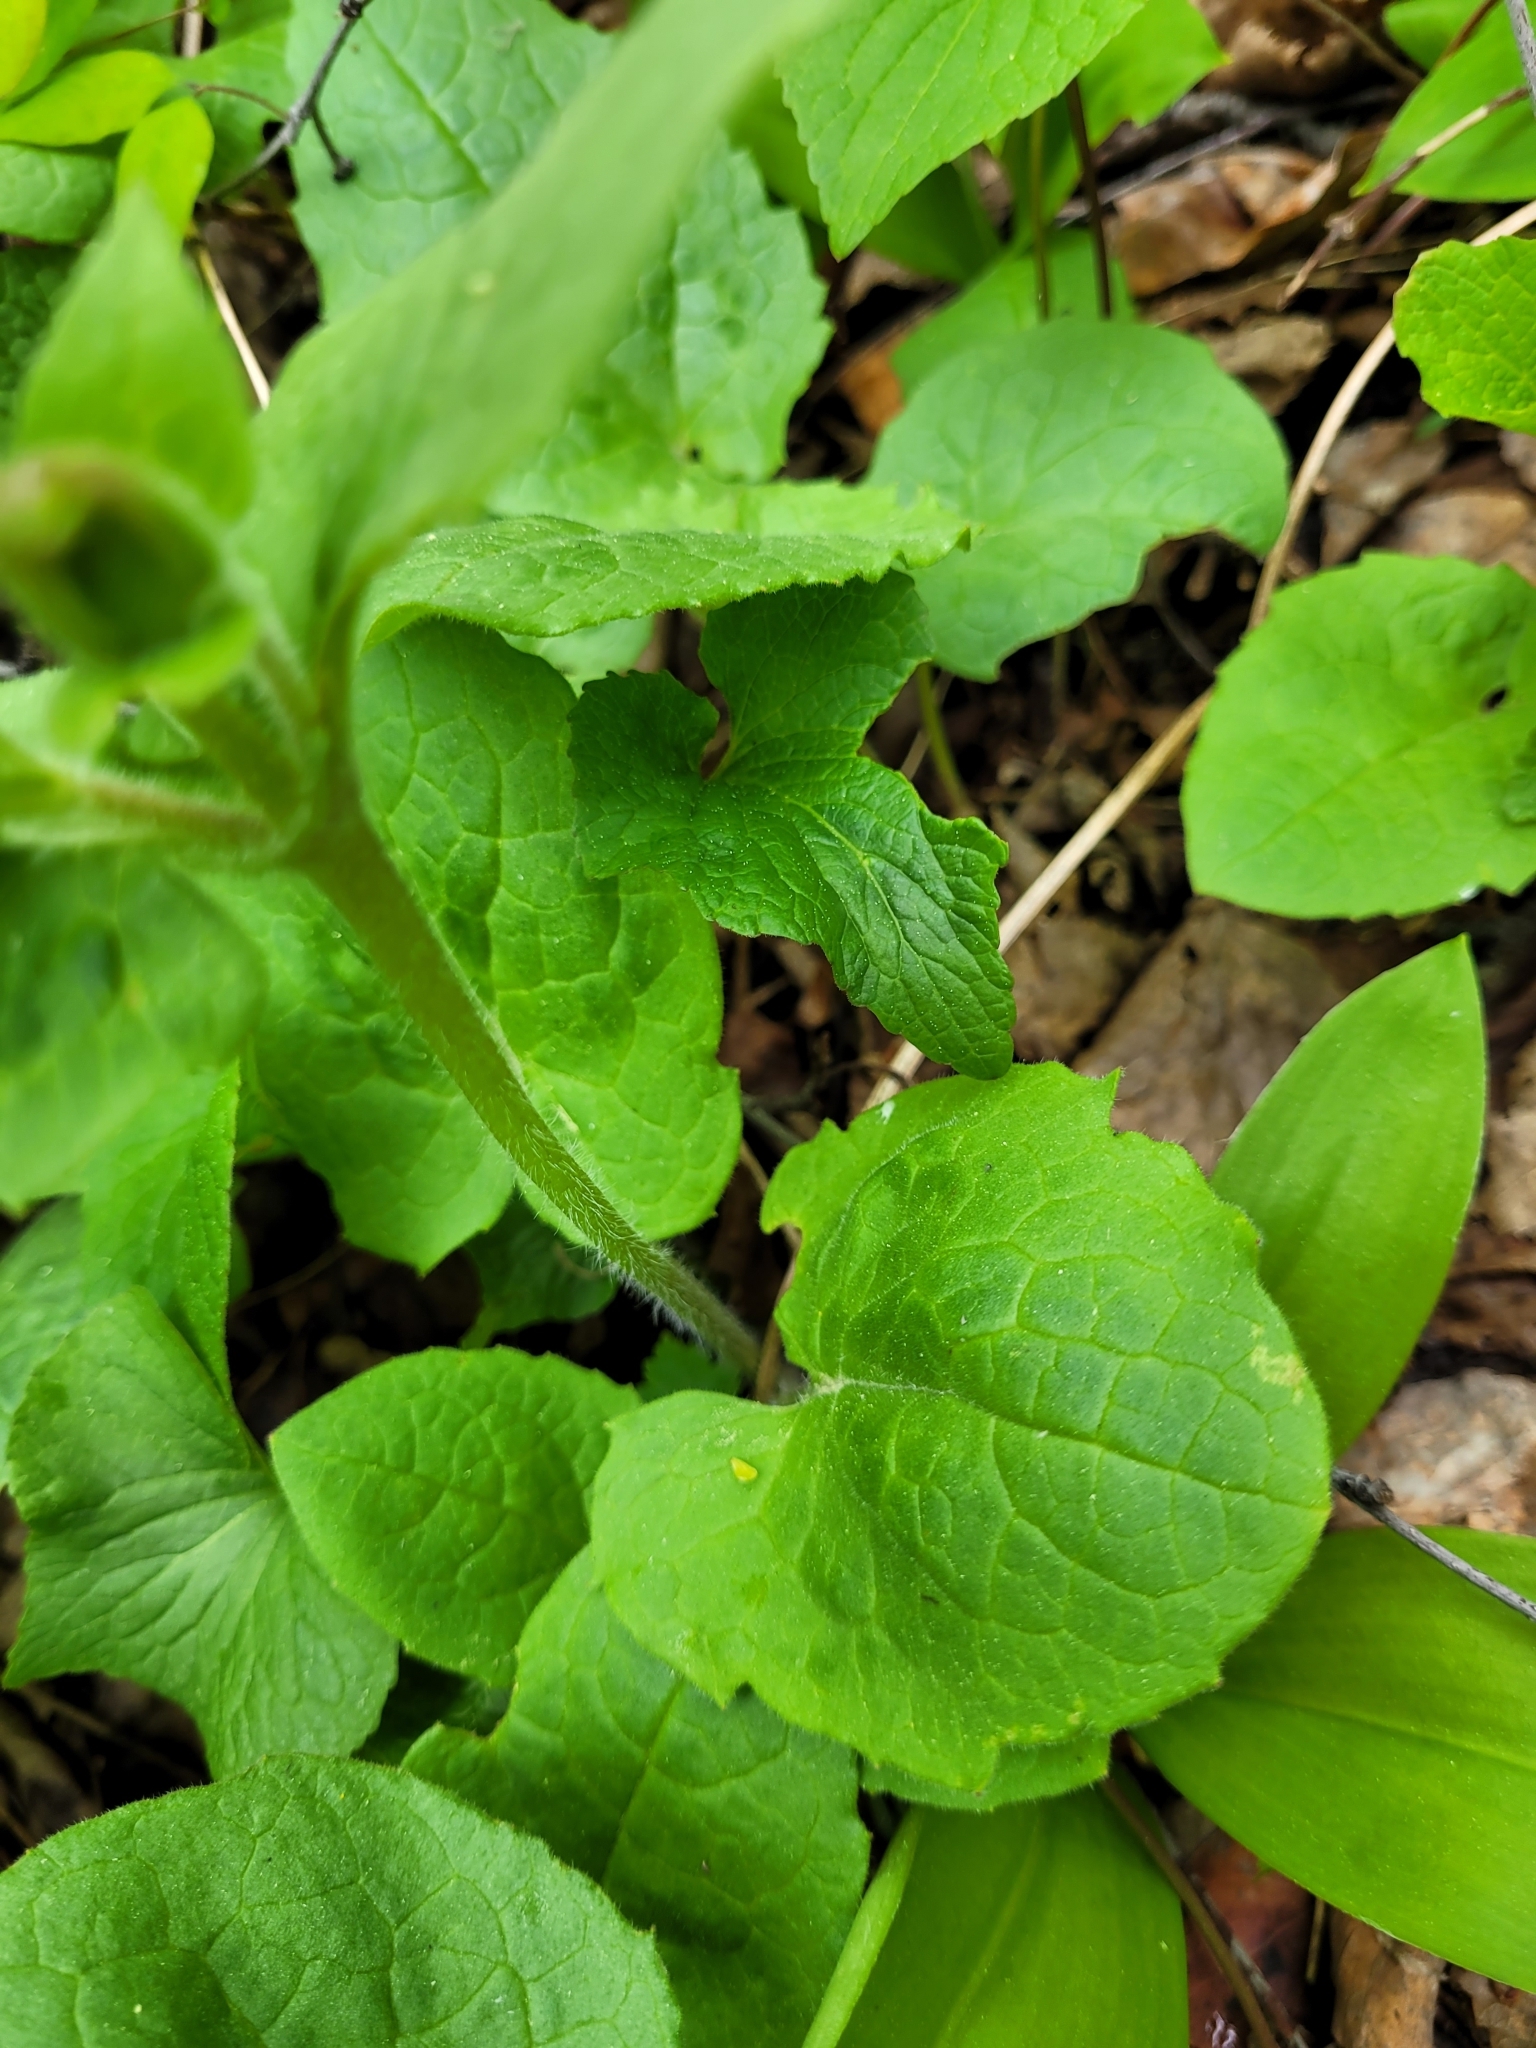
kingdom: Plantae
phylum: Tracheophyta
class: Magnoliopsida
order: Asterales
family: Asteraceae
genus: Arnica
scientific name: Arnica cordifolia
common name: Heart-leaf arnica
